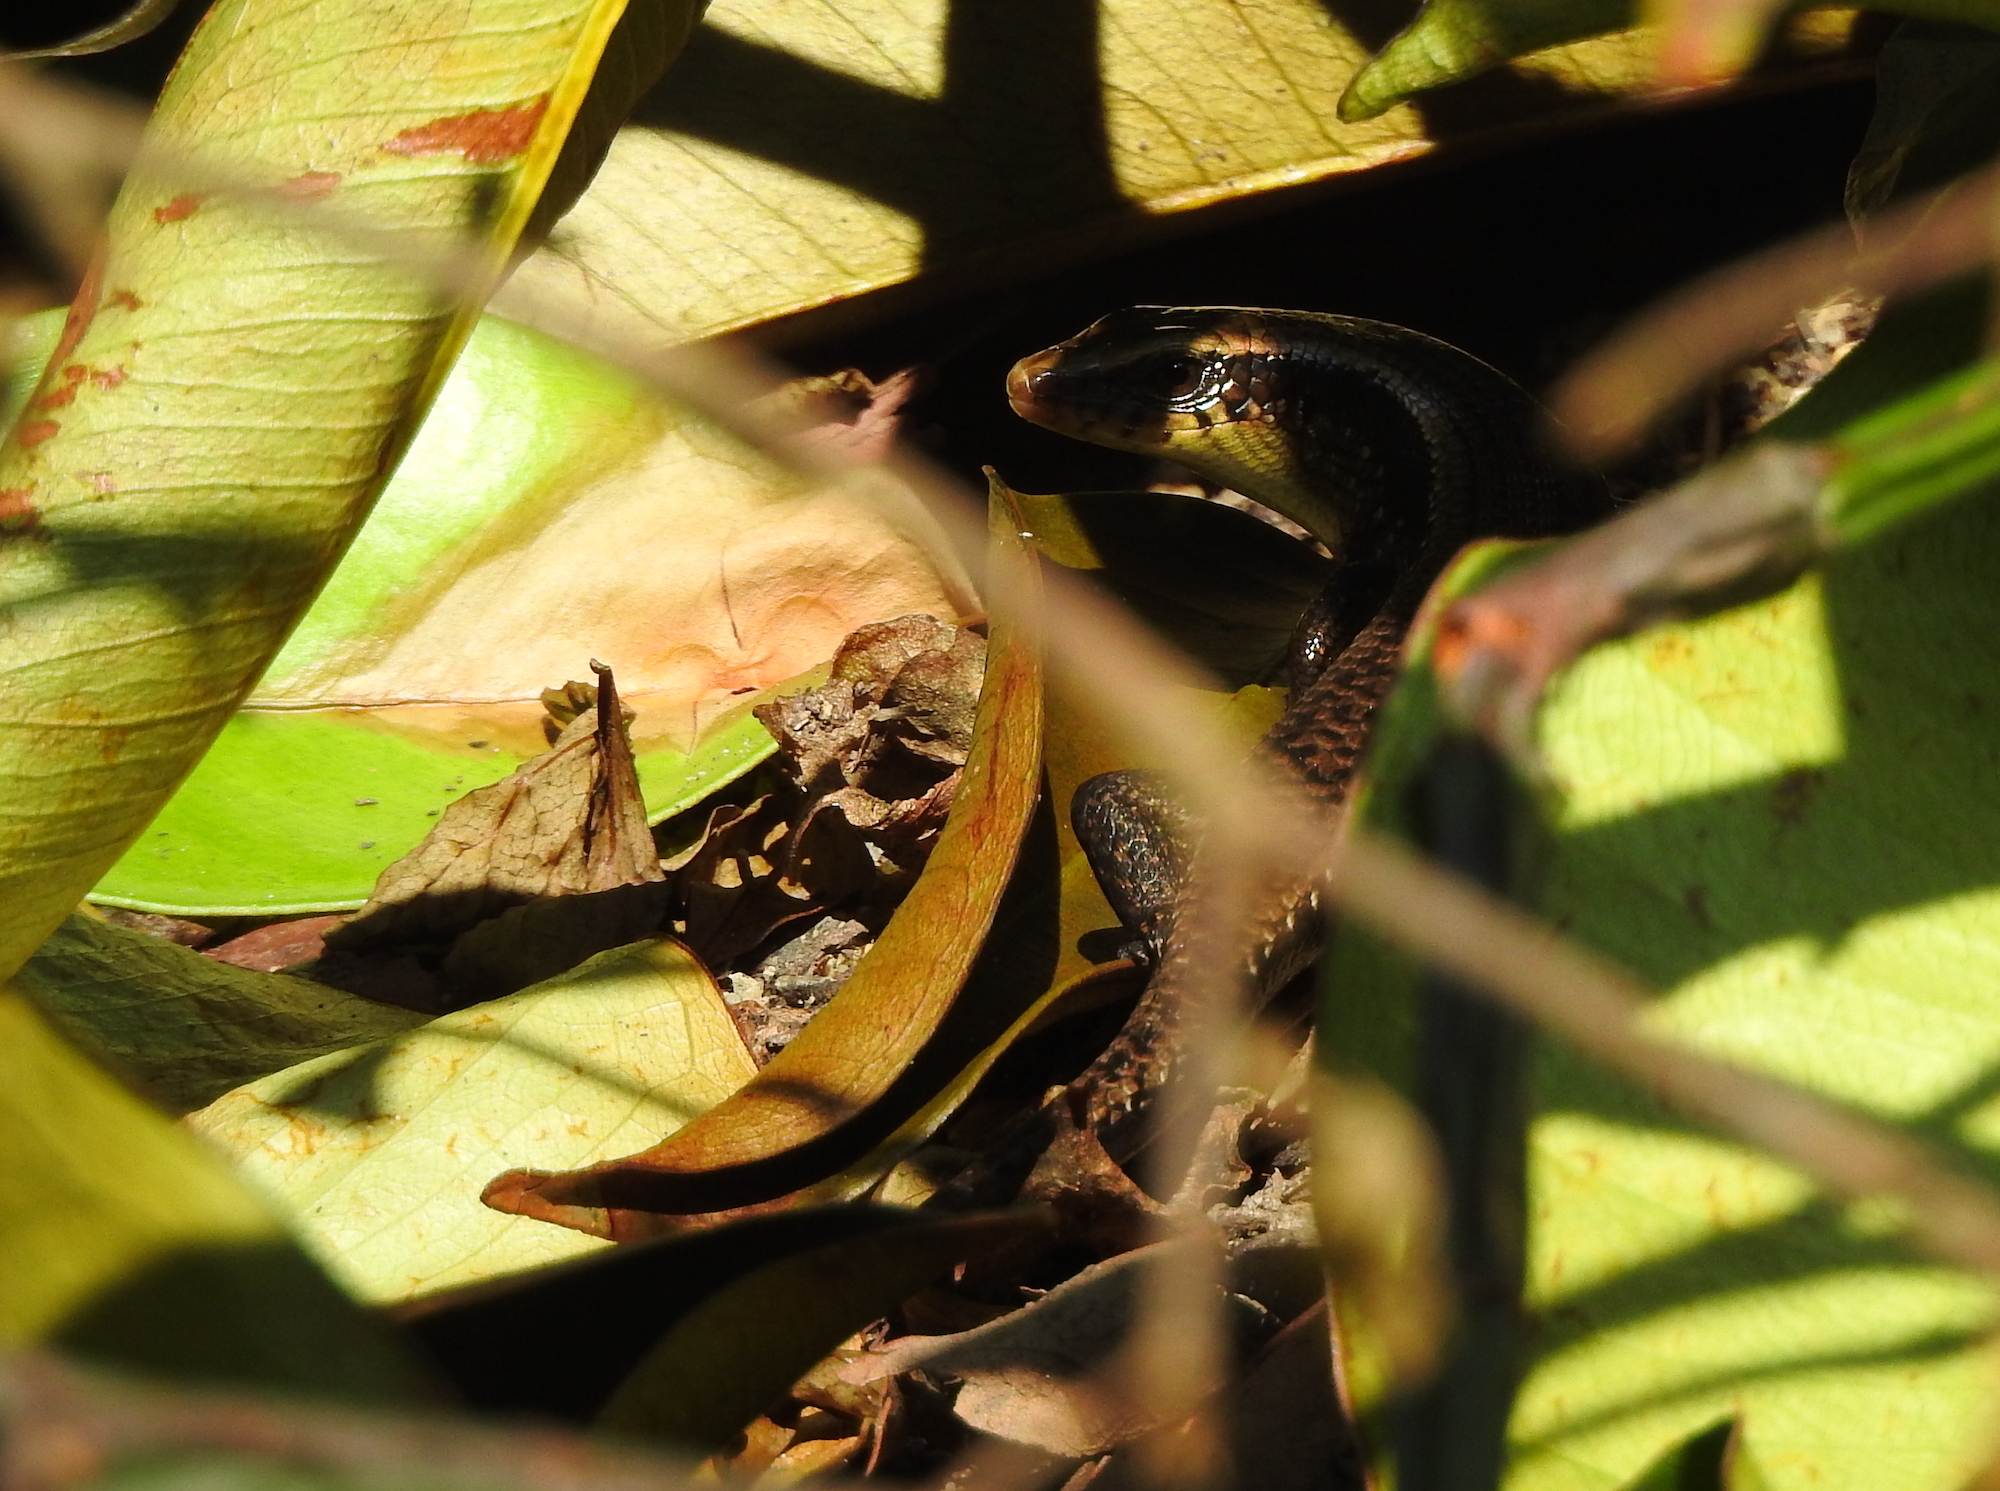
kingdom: Animalia
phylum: Chordata
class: Squamata
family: Scincidae
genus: Eutropis
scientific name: Eutropis multifasciata
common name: Common mabuya
